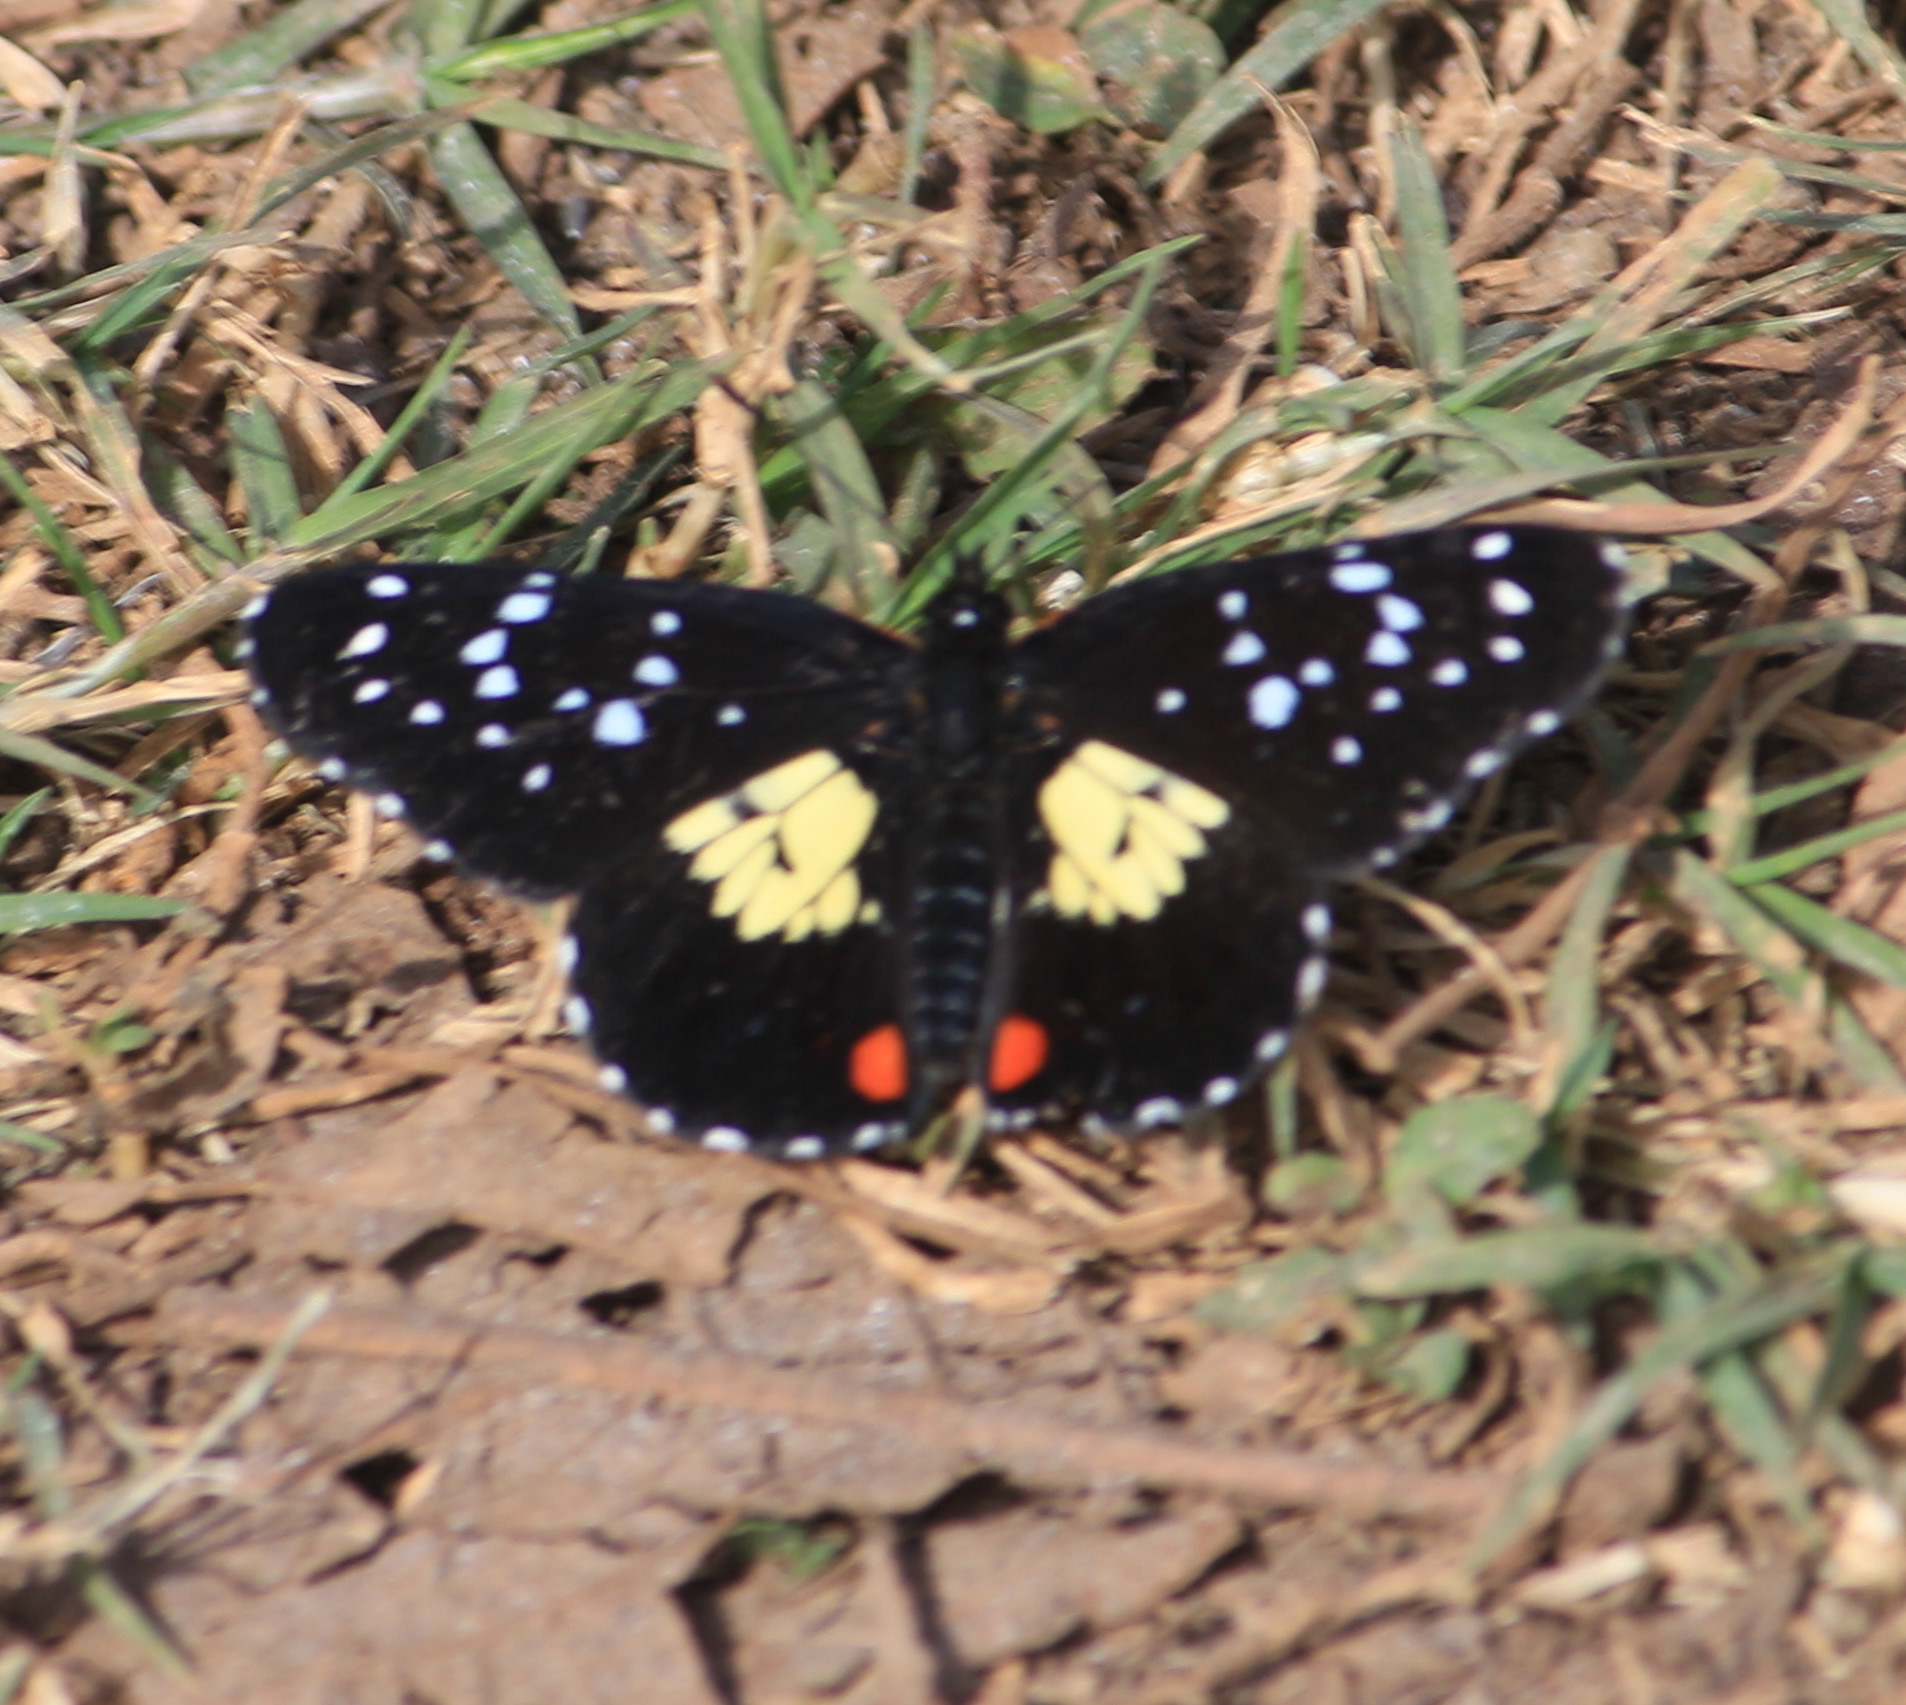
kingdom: Animalia
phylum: Arthropoda
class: Insecta
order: Lepidoptera
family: Nymphalidae
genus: Chlosyne
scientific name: Chlosyne erodyle
